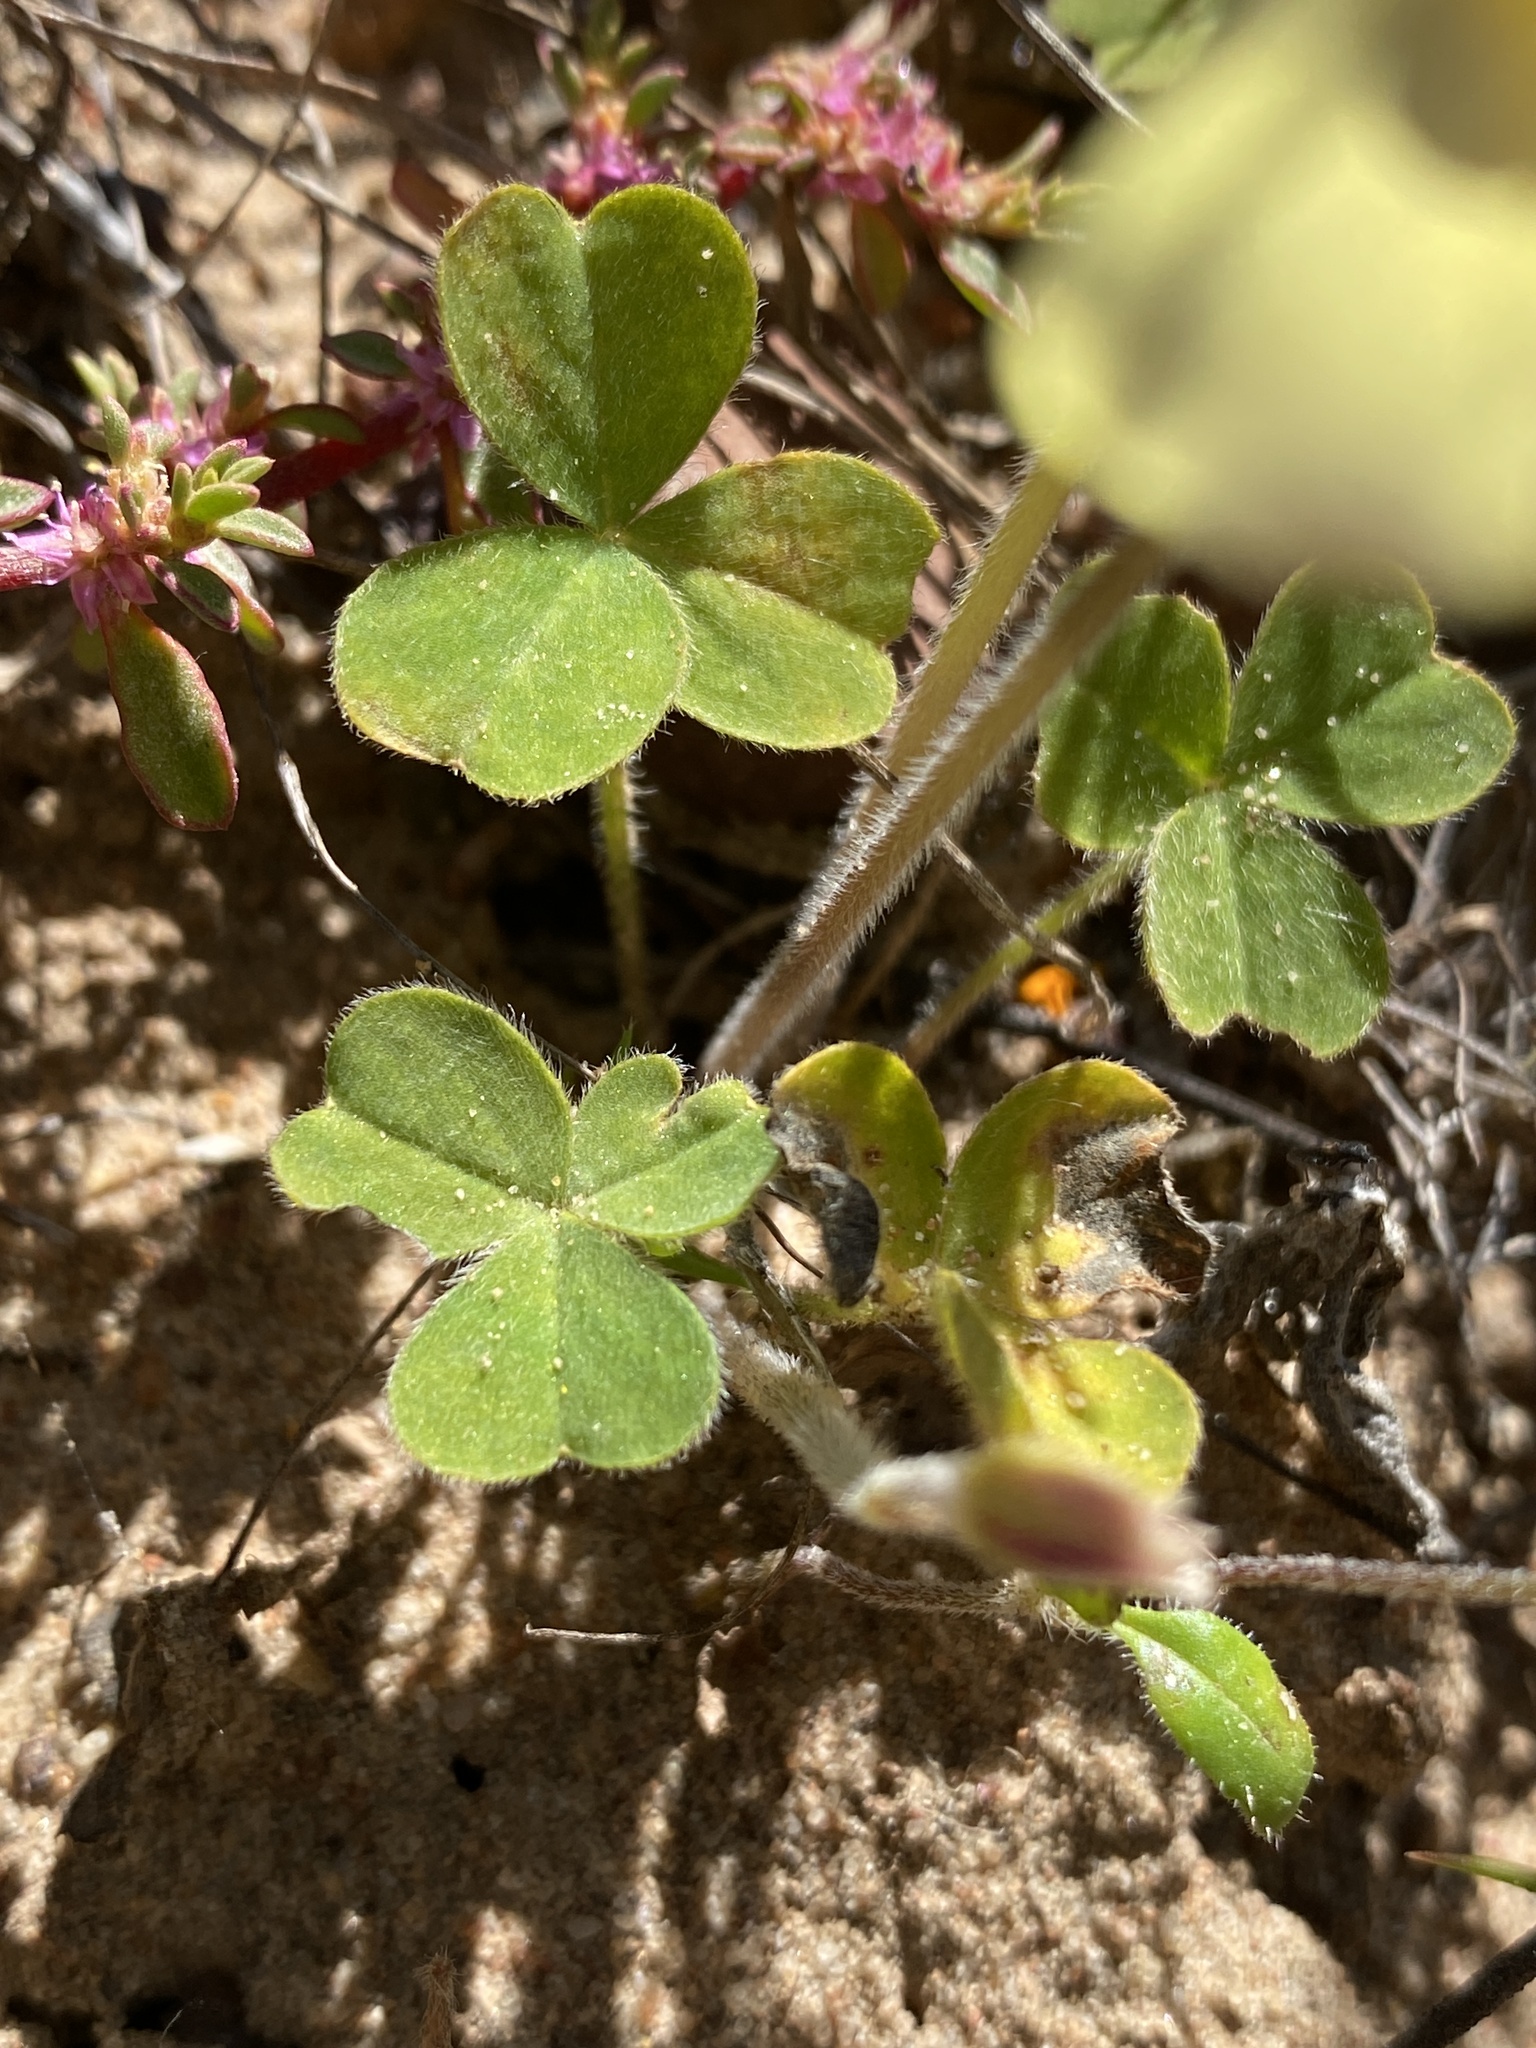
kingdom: Plantae
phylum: Tracheophyta
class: Magnoliopsida
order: Oxalidales
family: Oxalidaceae
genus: Oxalis
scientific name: Oxalis obtusa
